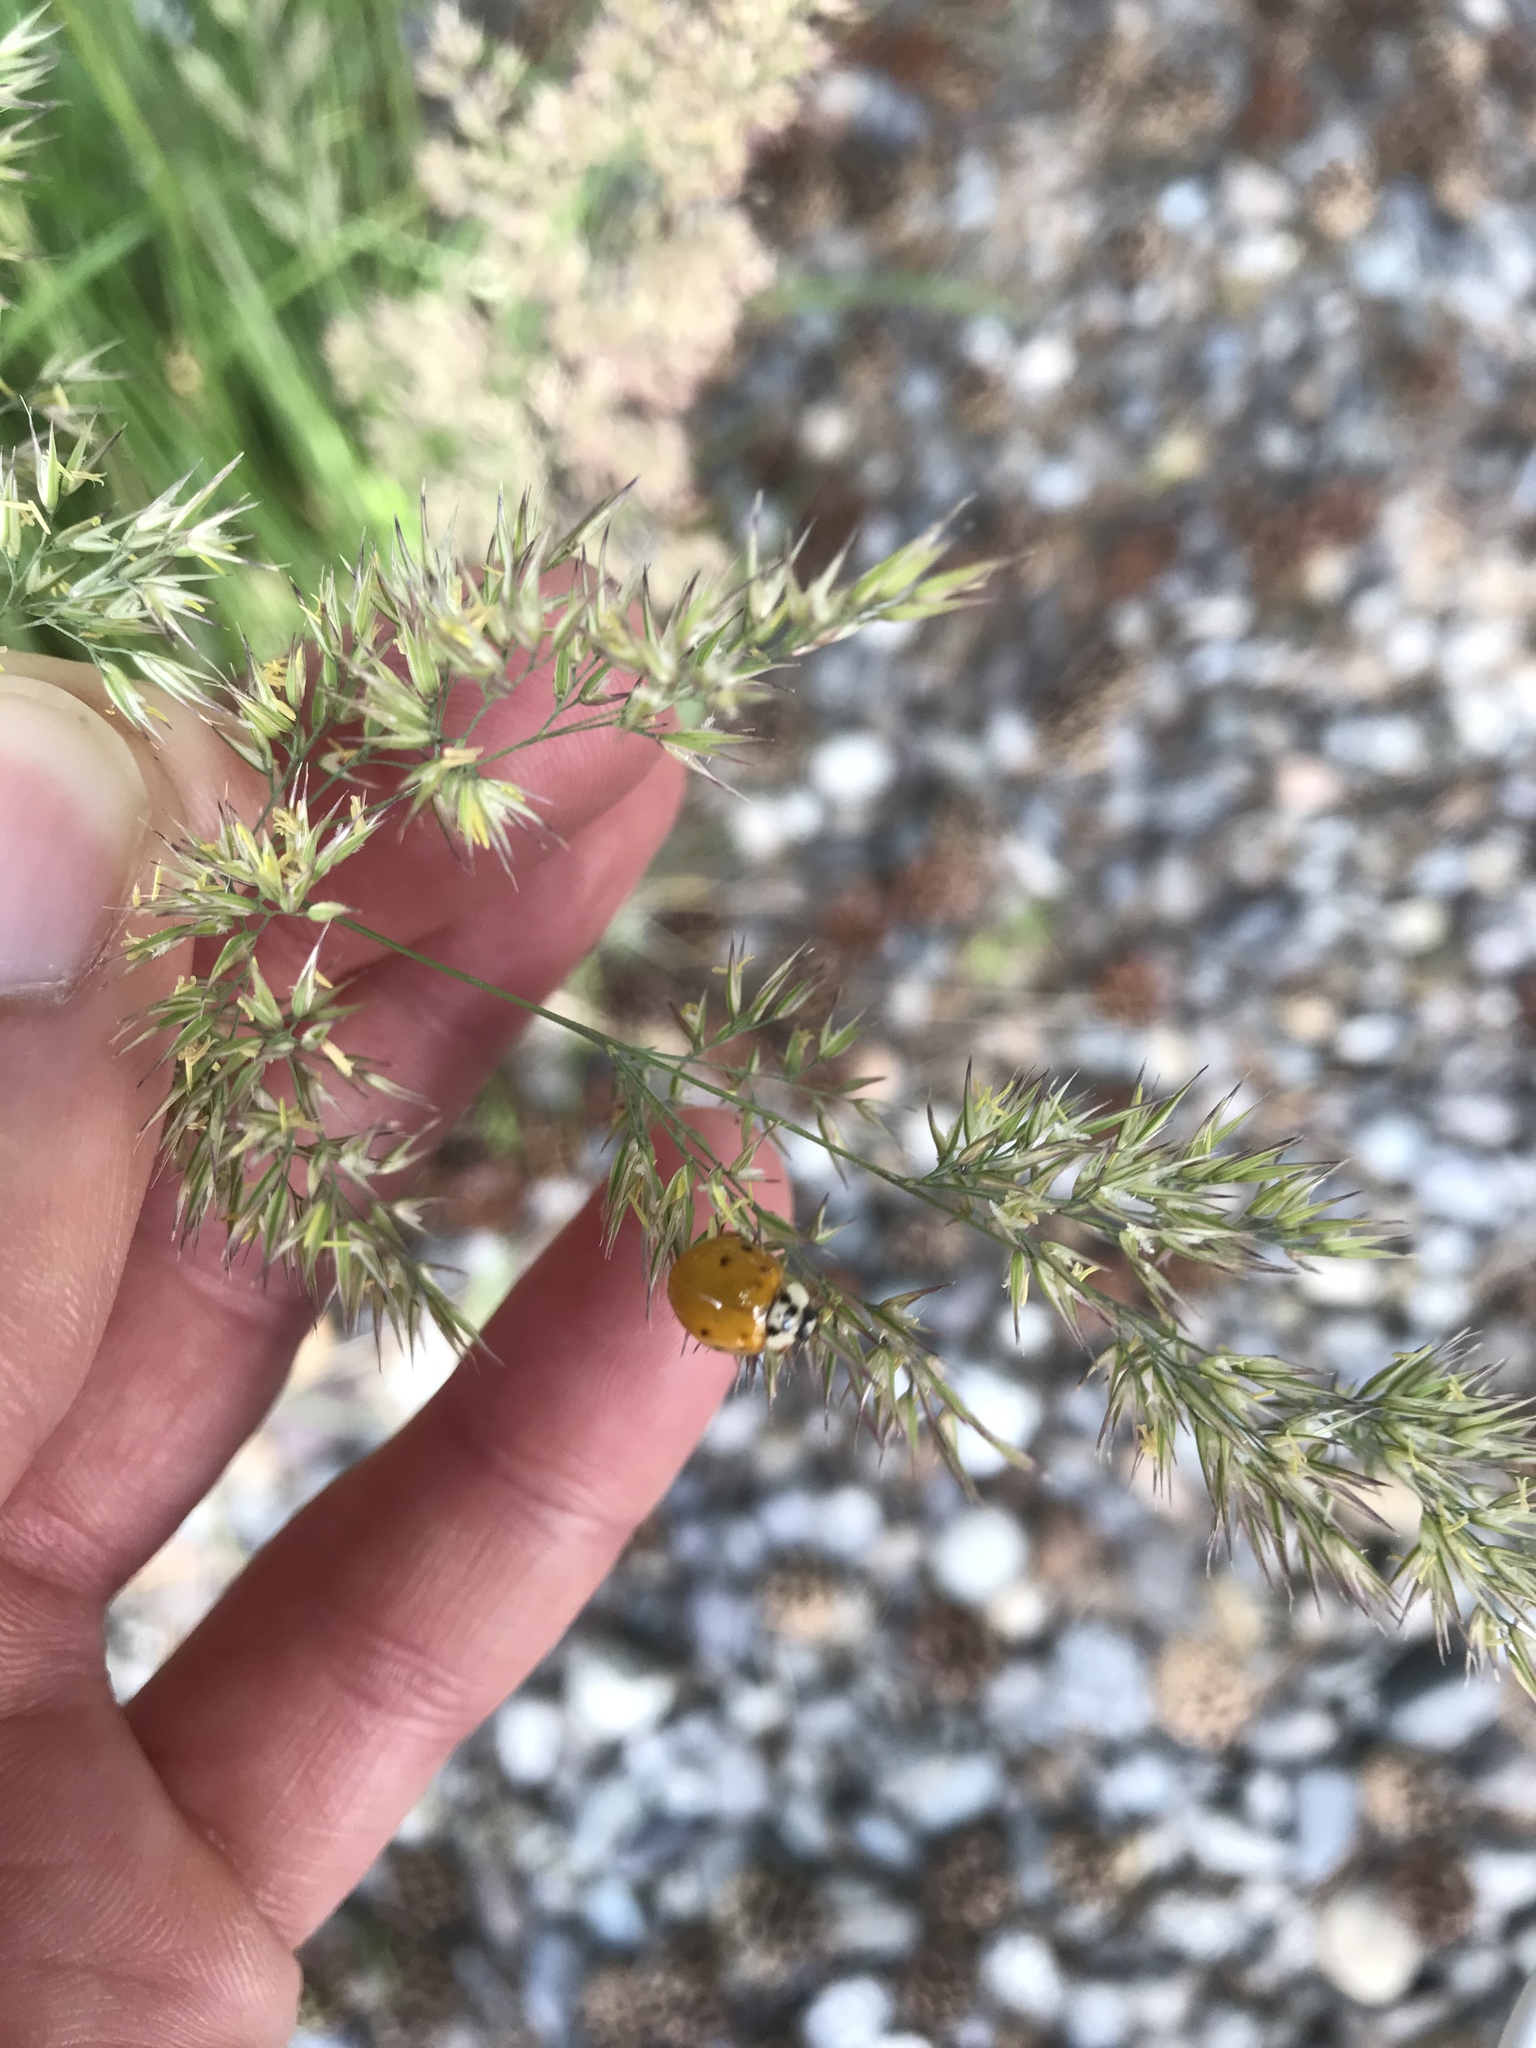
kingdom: Animalia
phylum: Arthropoda
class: Insecta
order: Coleoptera
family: Coccinellidae
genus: Harmonia
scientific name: Harmonia axyridis
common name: Harlequin ladybird
